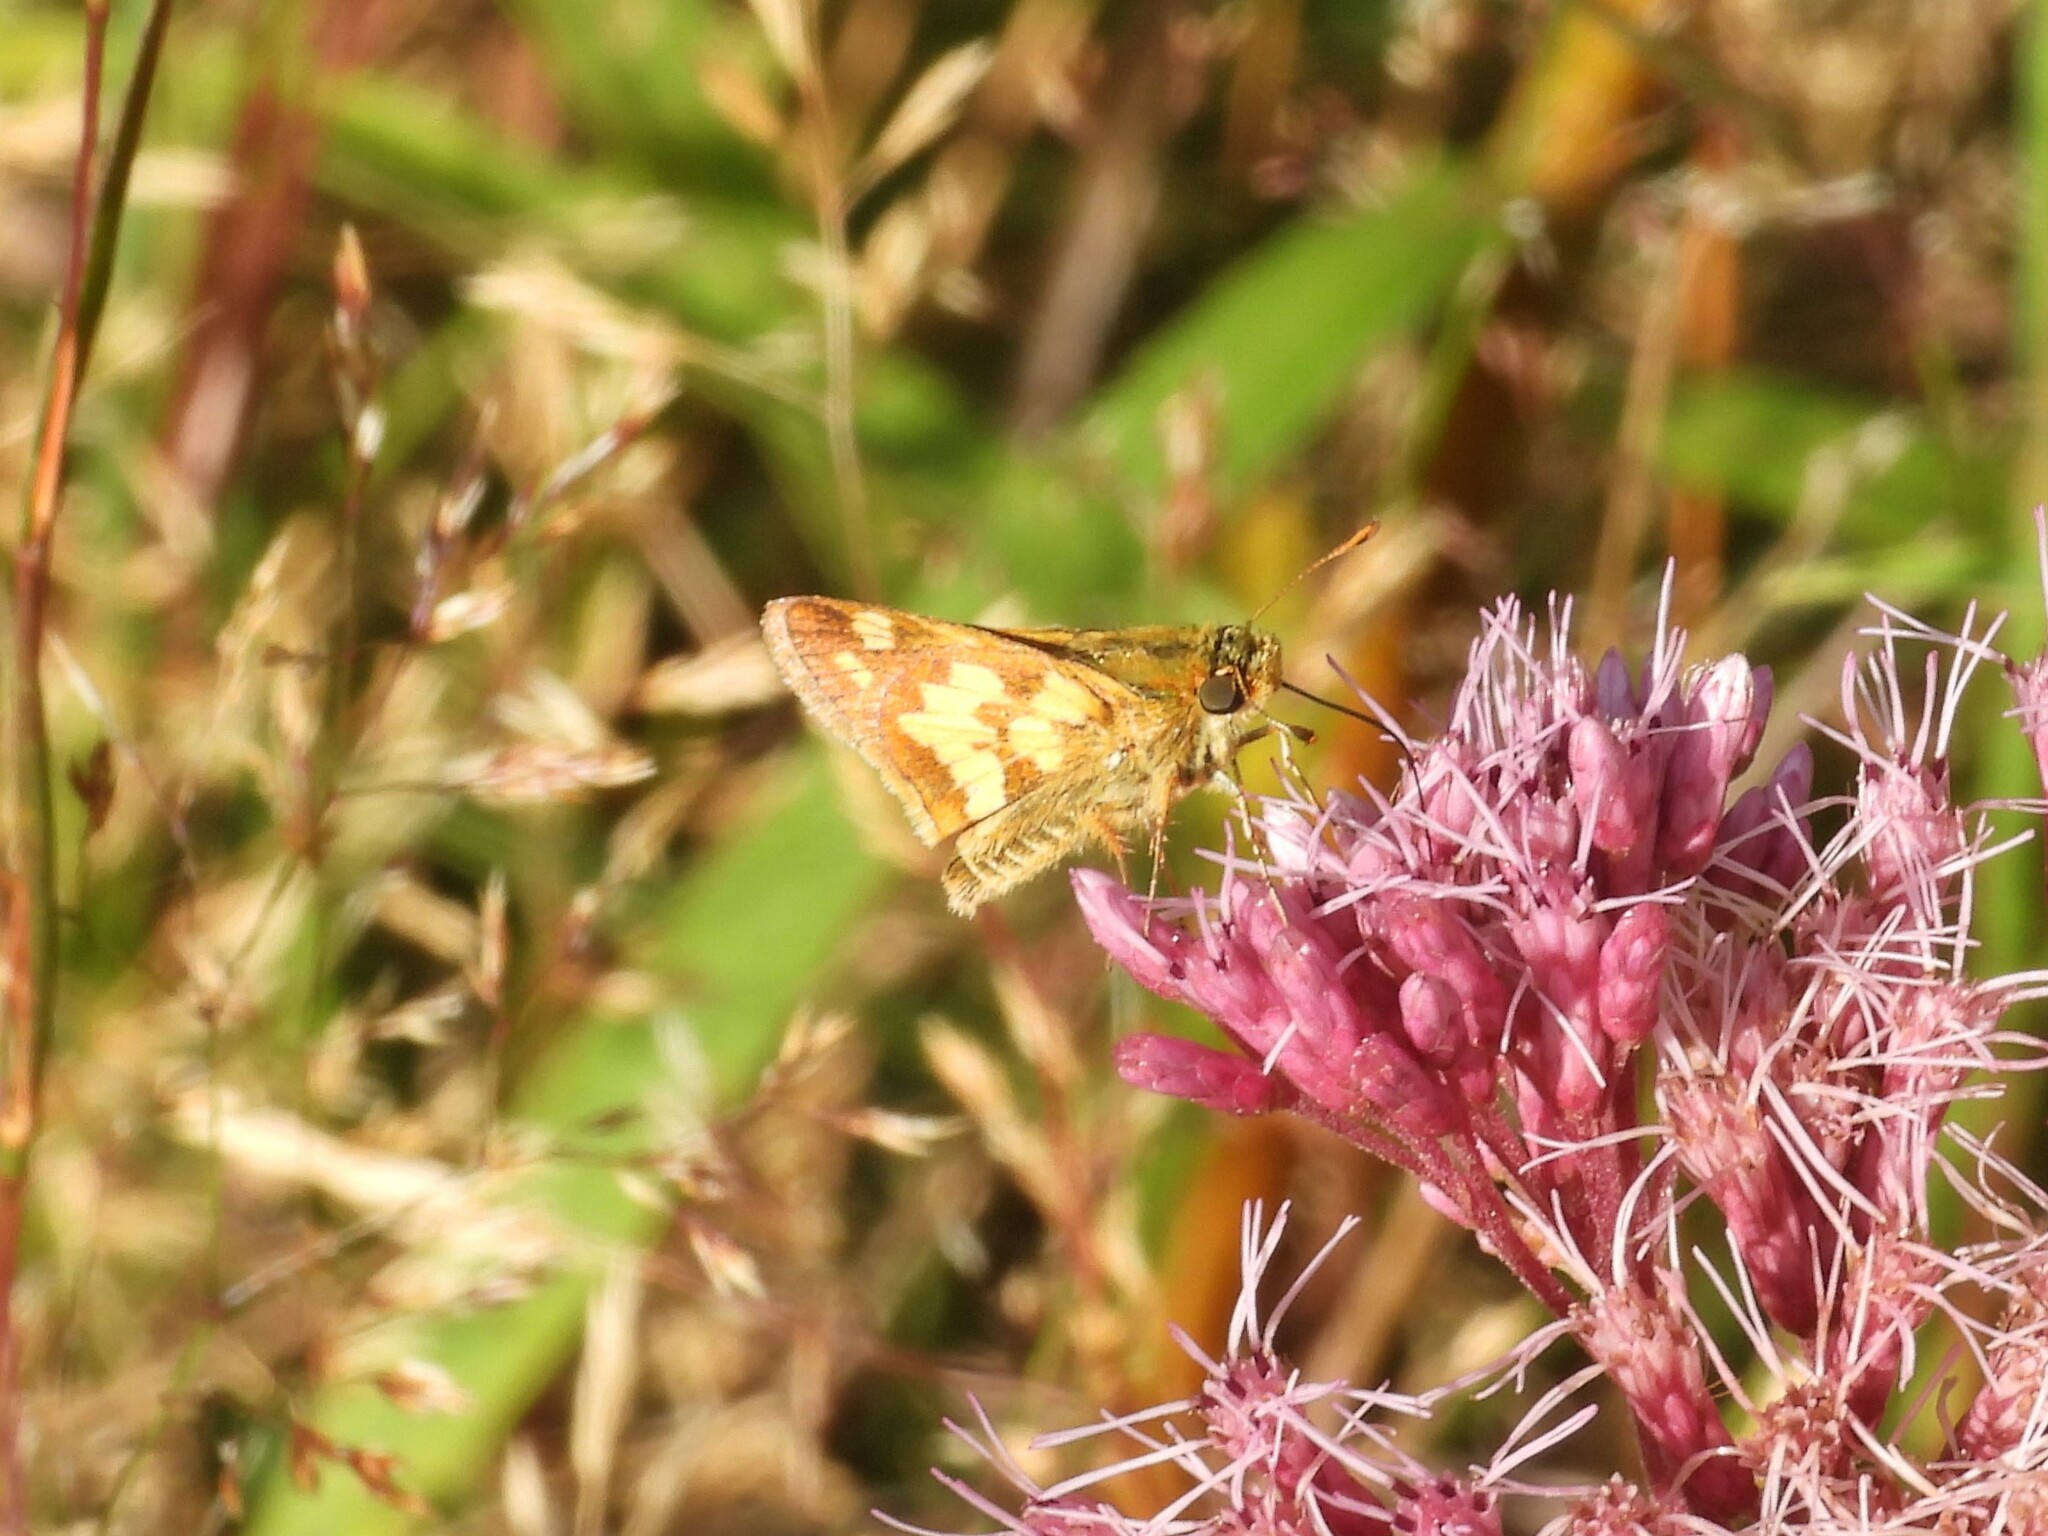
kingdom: Animalia
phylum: Arthropoda
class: Insecta
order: Lepidoptera
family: Hesperiidae
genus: Polites
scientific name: Polites coras
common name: Peck's skipper
